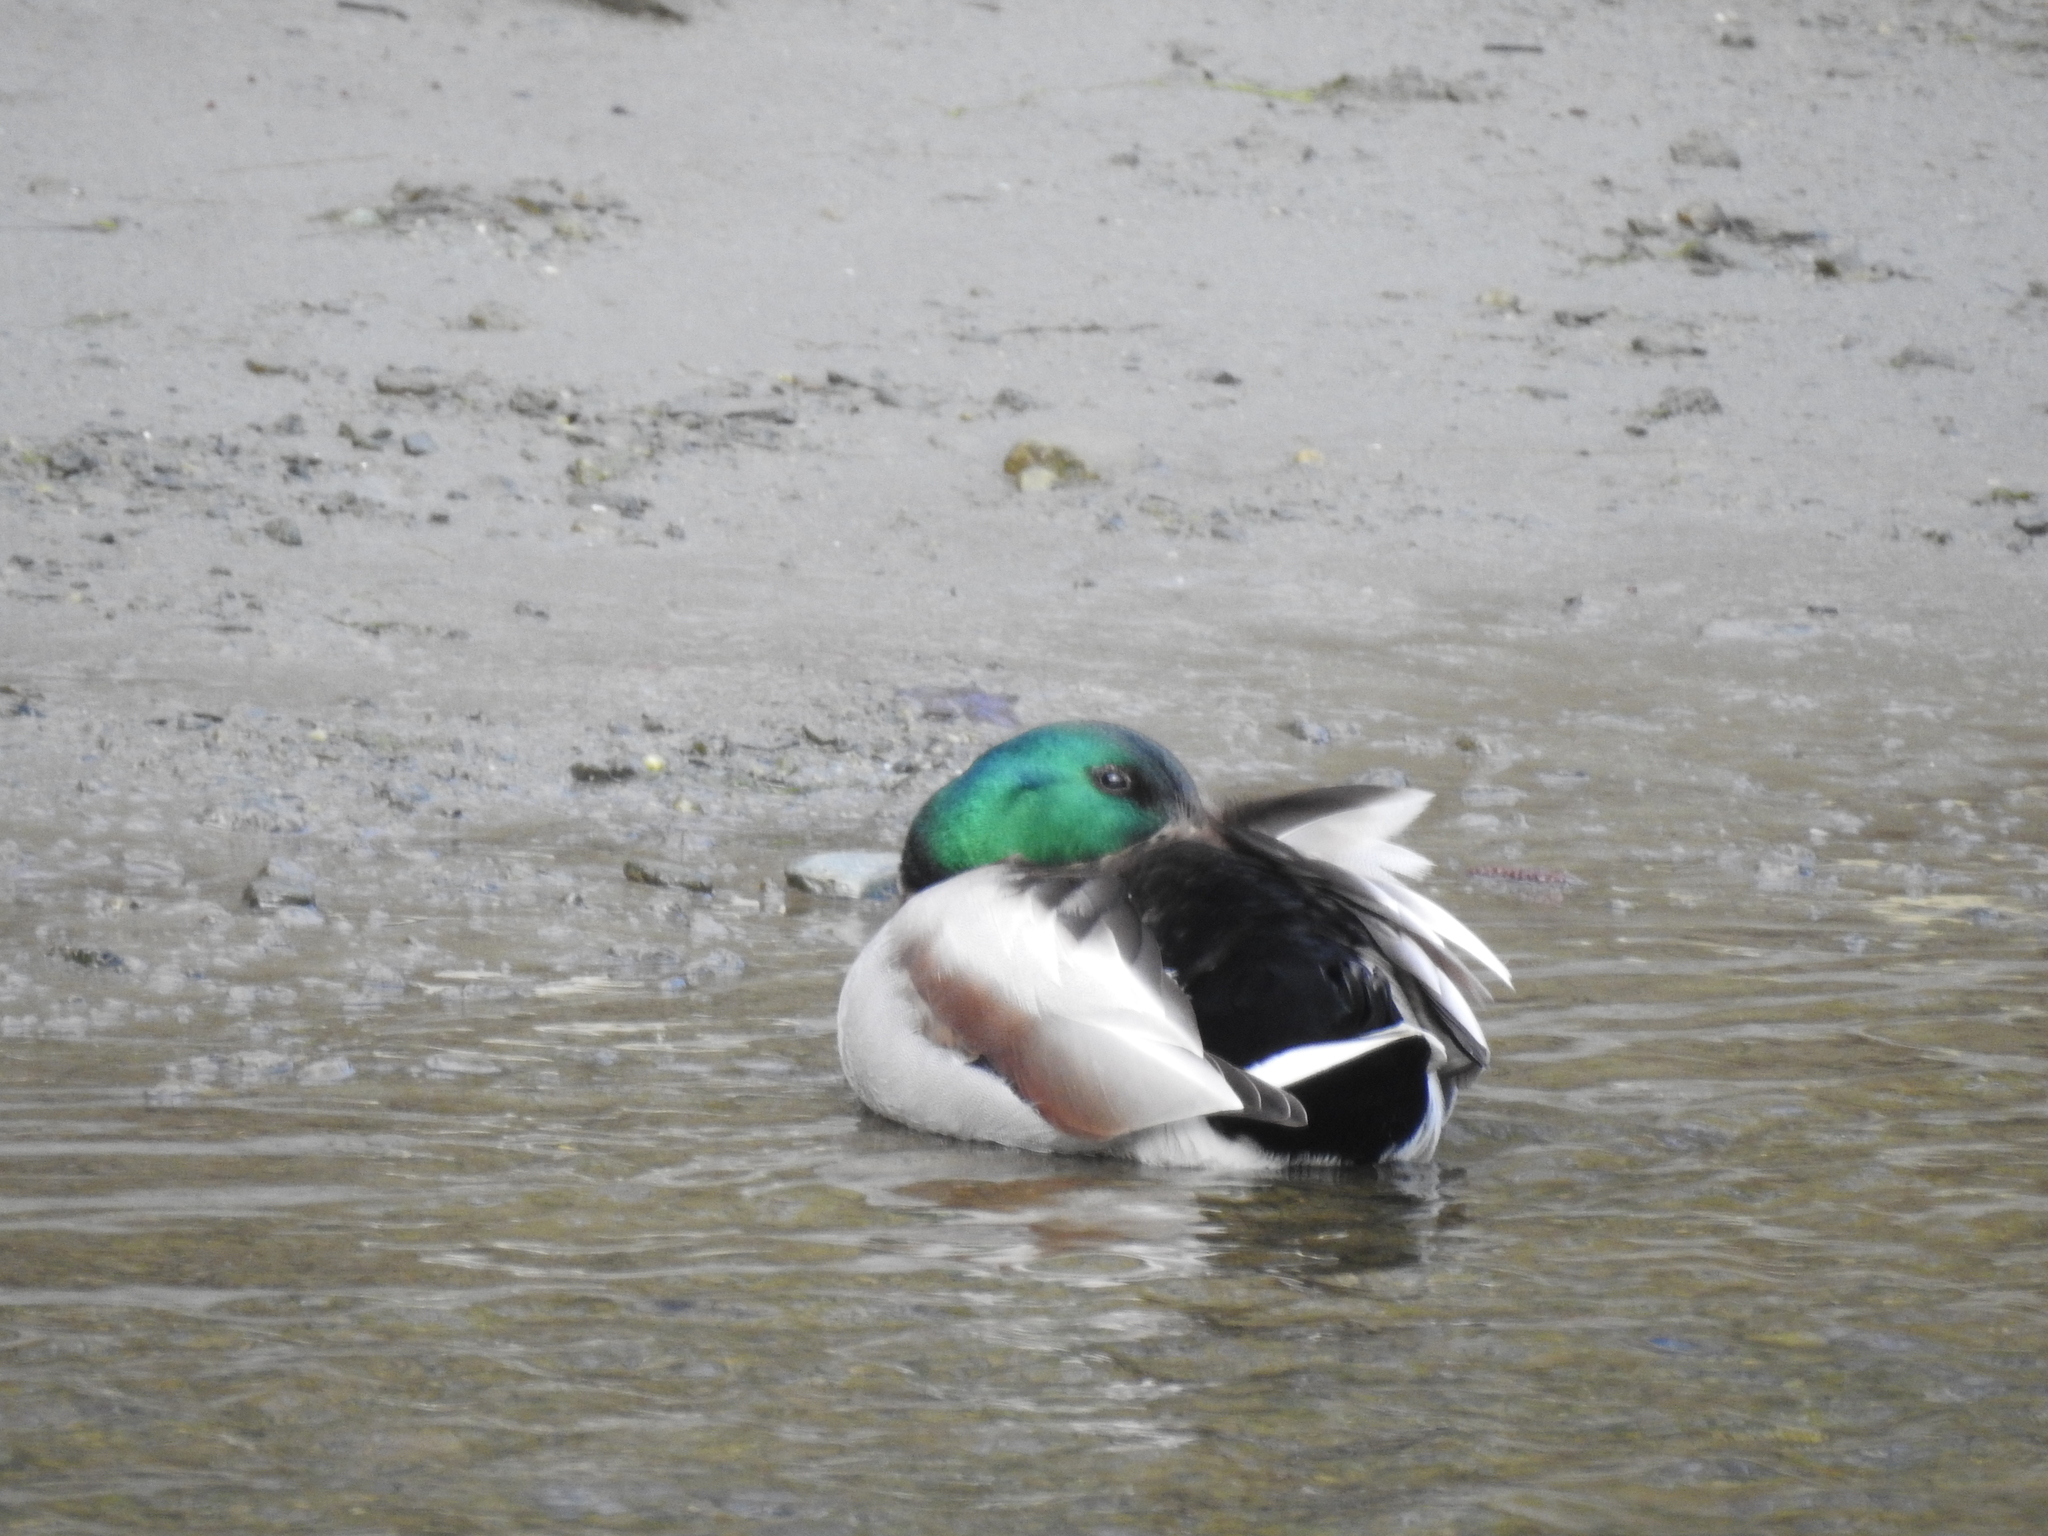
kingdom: Animalia
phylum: Chordata
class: Aves
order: Anseriformes
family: Anatidae
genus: Anas
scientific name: Anas platyrhynchos
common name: Mallard
